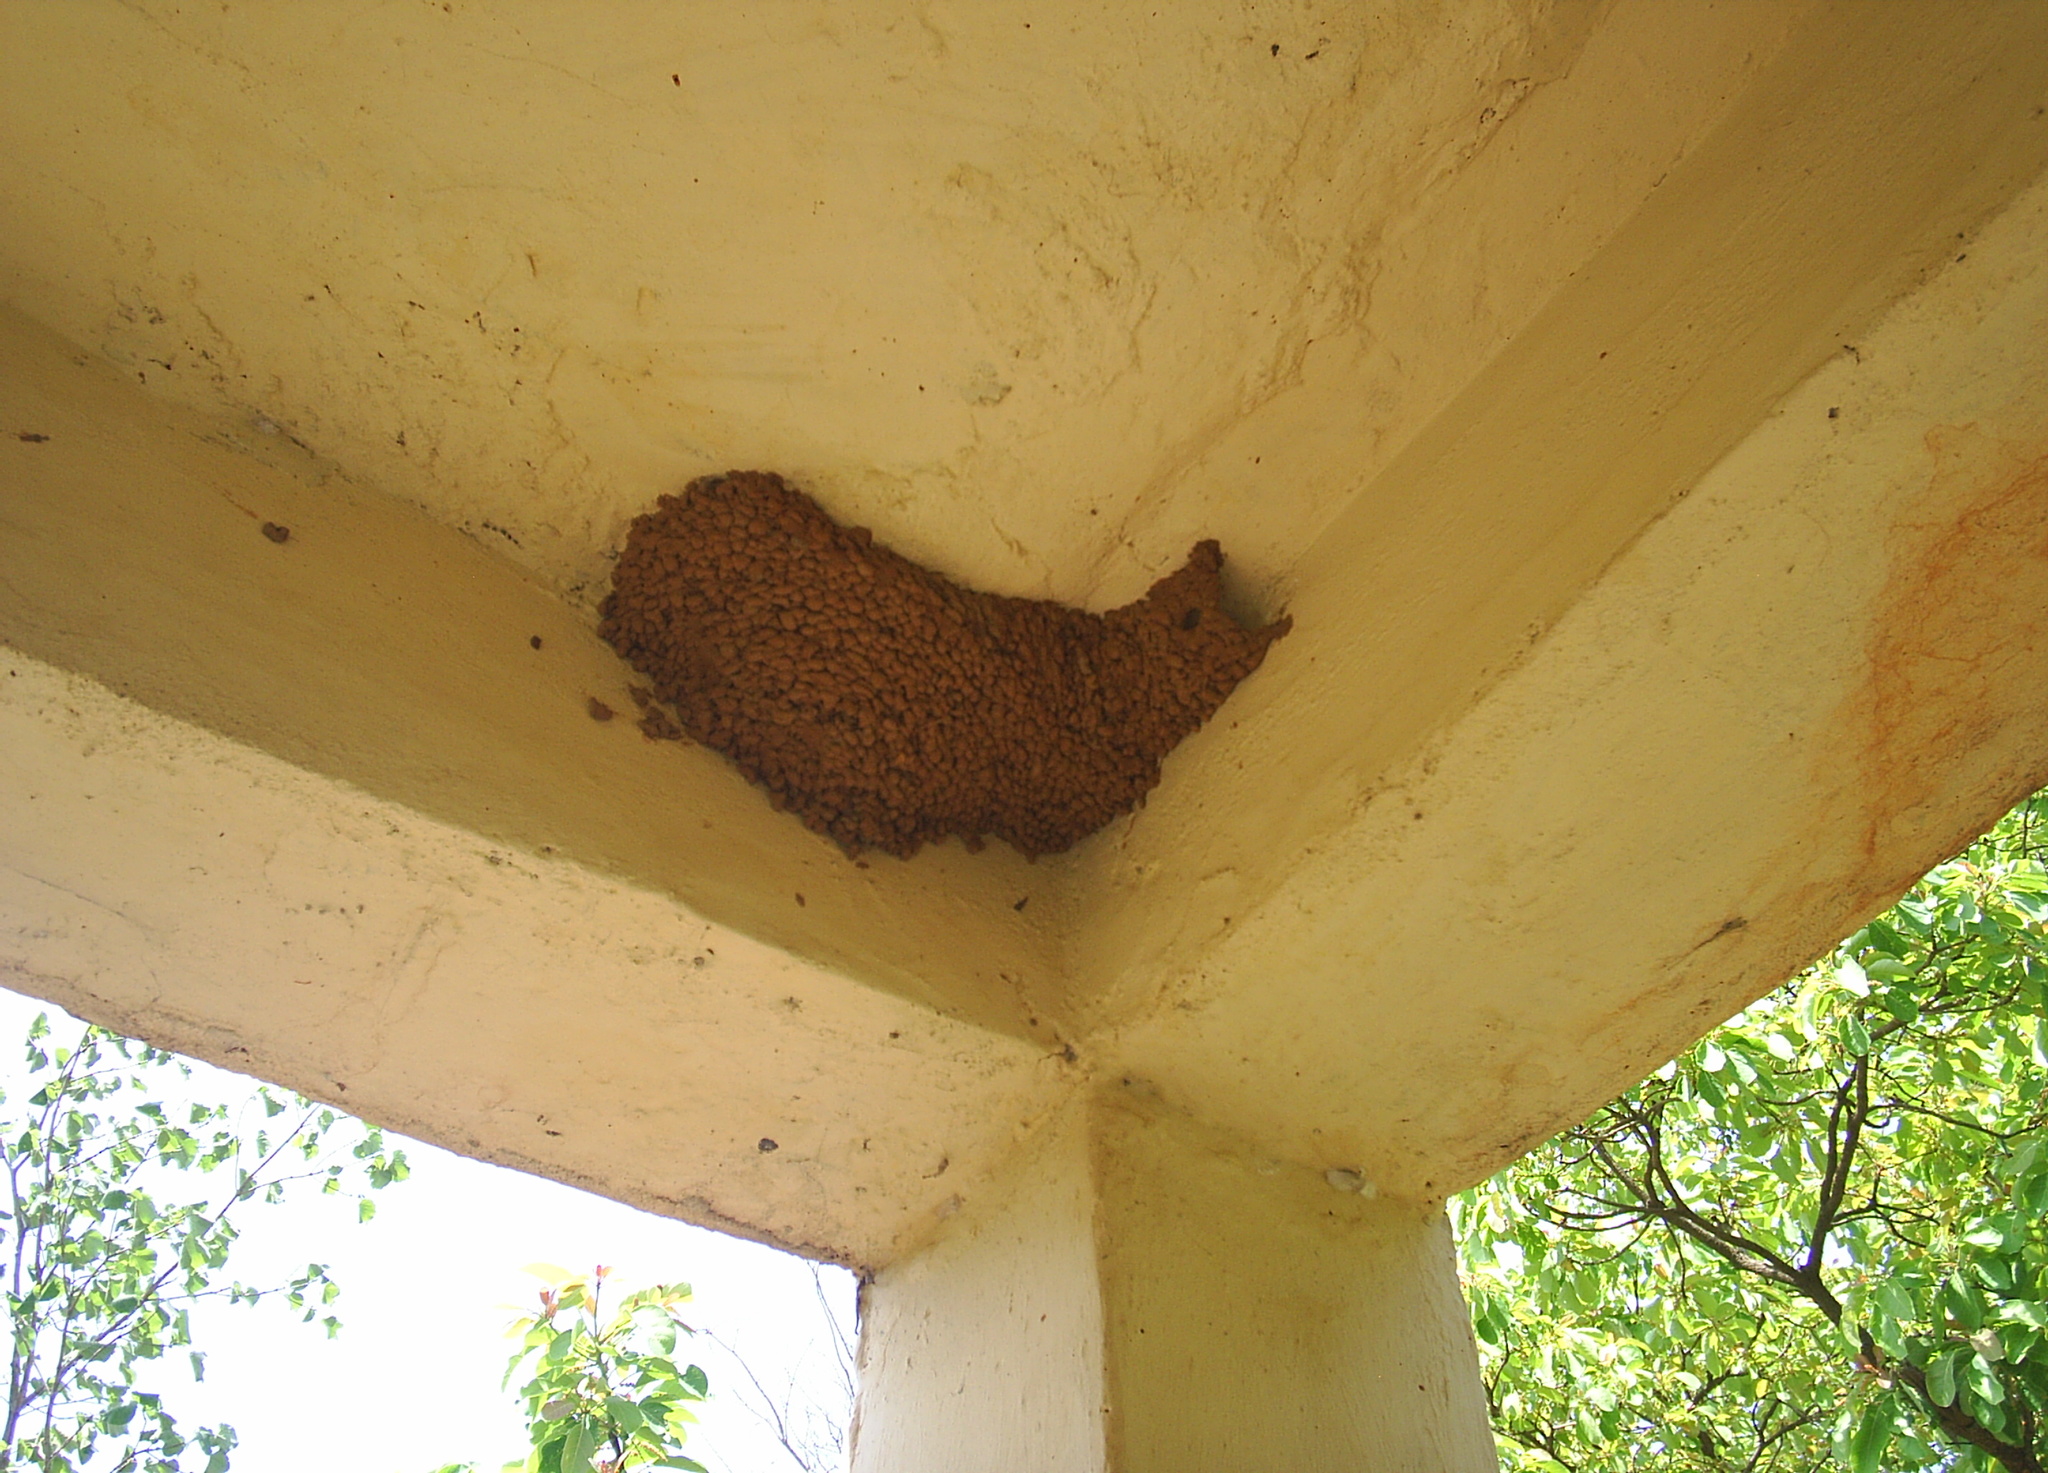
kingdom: Animalia
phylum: Chordata
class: Aves
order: Passeriformes
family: Hirundinidae
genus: Cecropis
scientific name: Cecropis daurica
